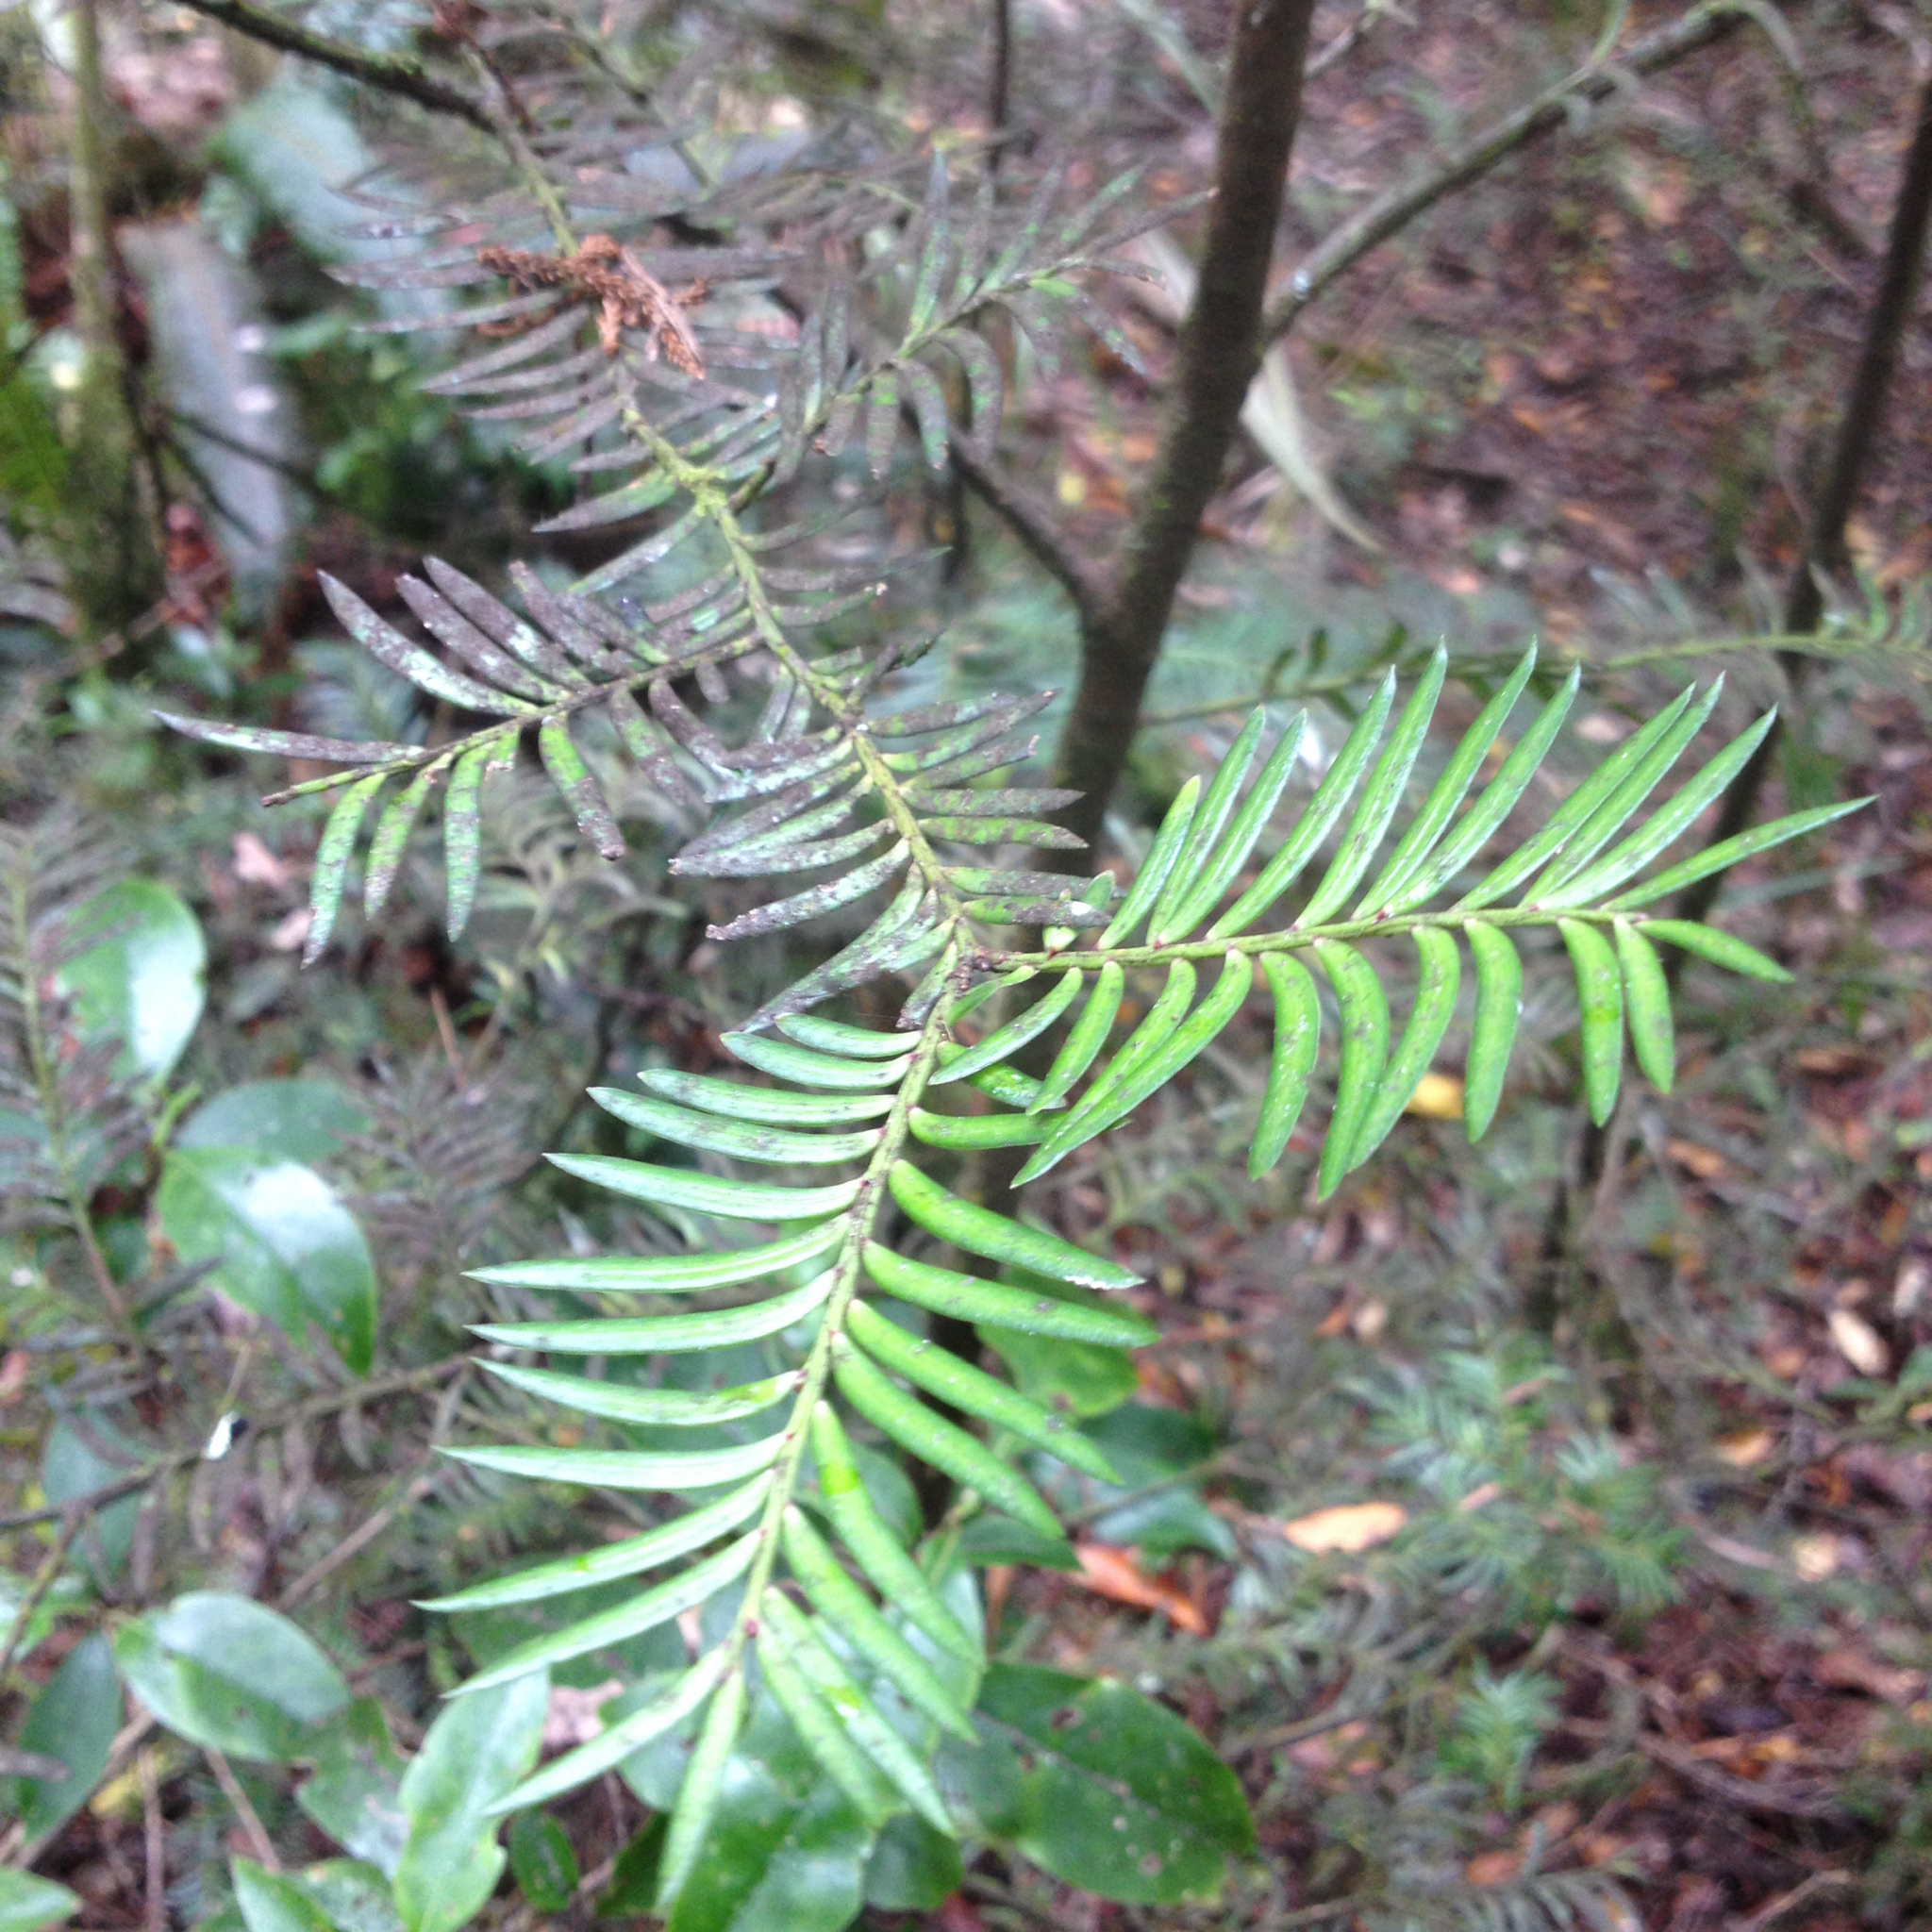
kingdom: Plantae
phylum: Tracheophyta
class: Pinopsida
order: Pinales
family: Podocarpaceae
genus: Prumnopitys
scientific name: Prumnopitys ferruginea
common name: Brown pine
